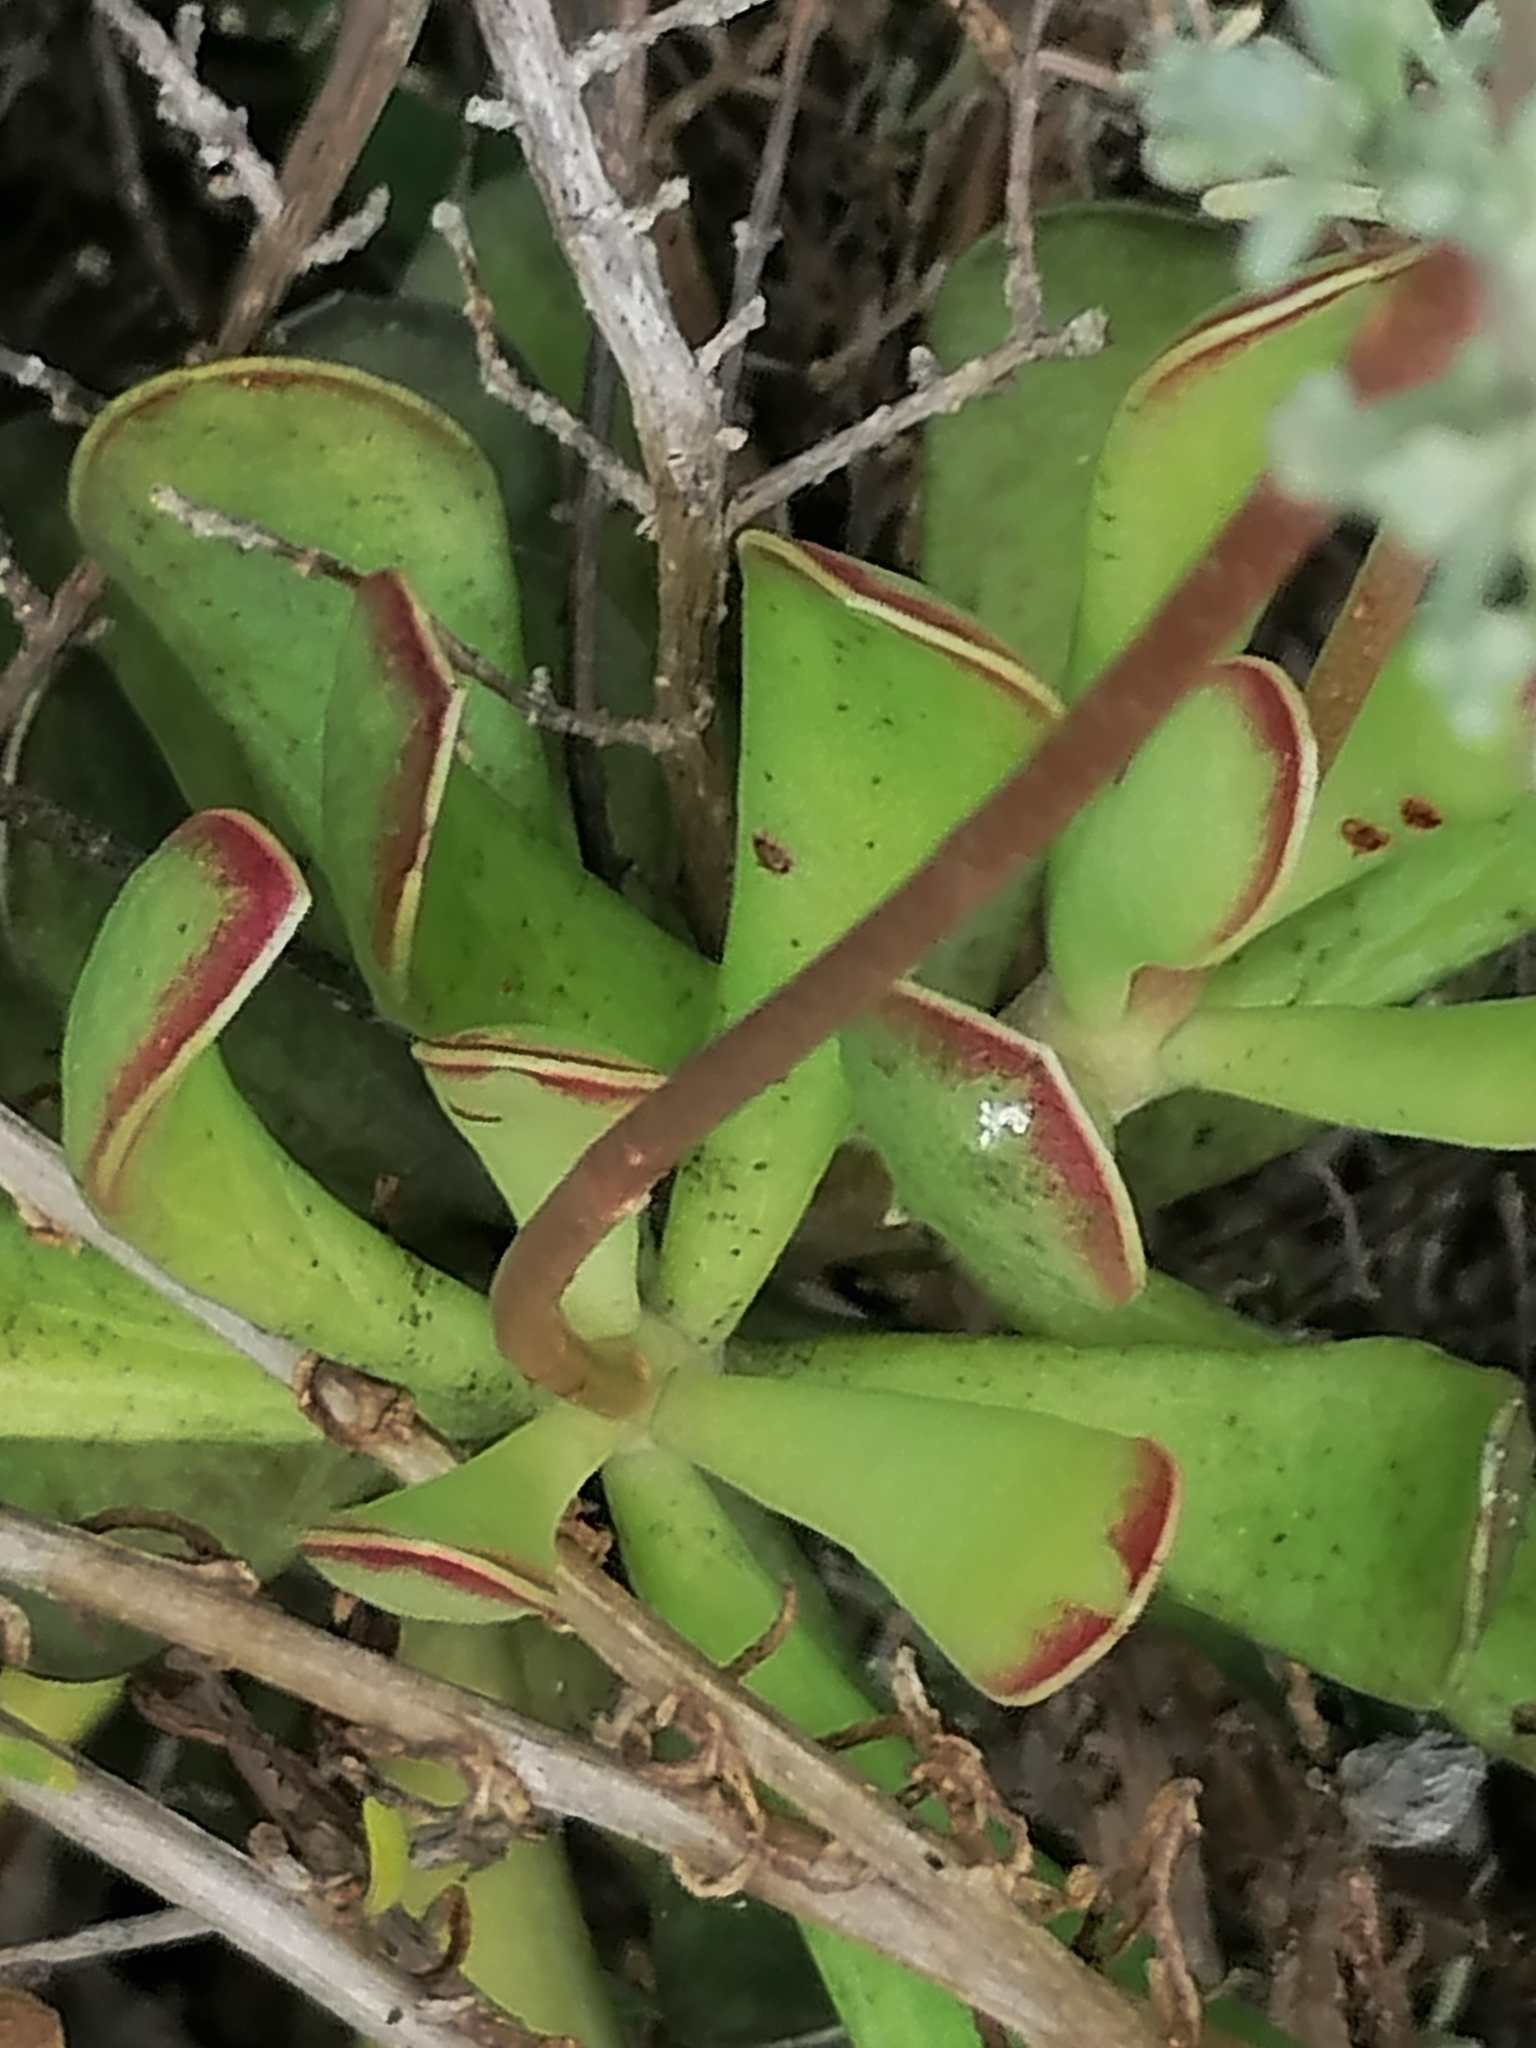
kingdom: Plantae
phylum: Tracheophyta
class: Magnoliopsida
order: Saxifragales
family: Crassulaceae
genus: Adromischus
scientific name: Adromischus caryophyllaceus
